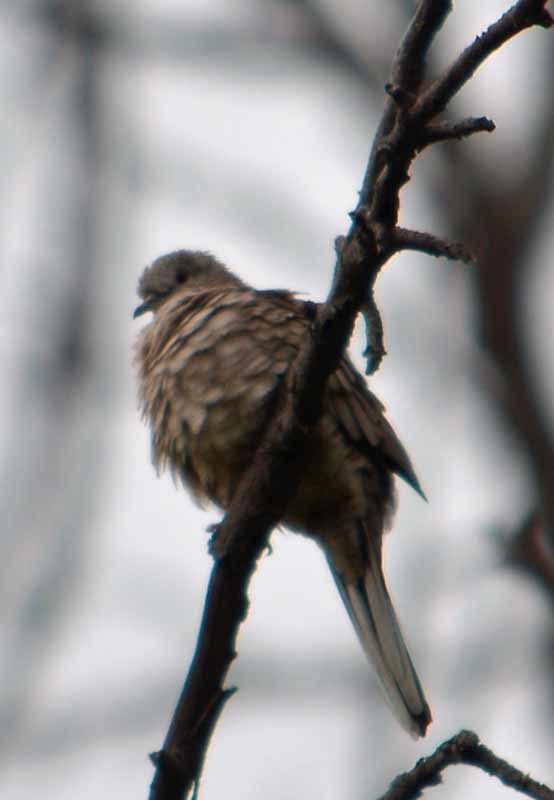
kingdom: Animalia
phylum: Chordata
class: Aves
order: Columbiformes
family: Columbidae
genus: Columbina
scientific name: Columbina inca
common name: Inca dove
